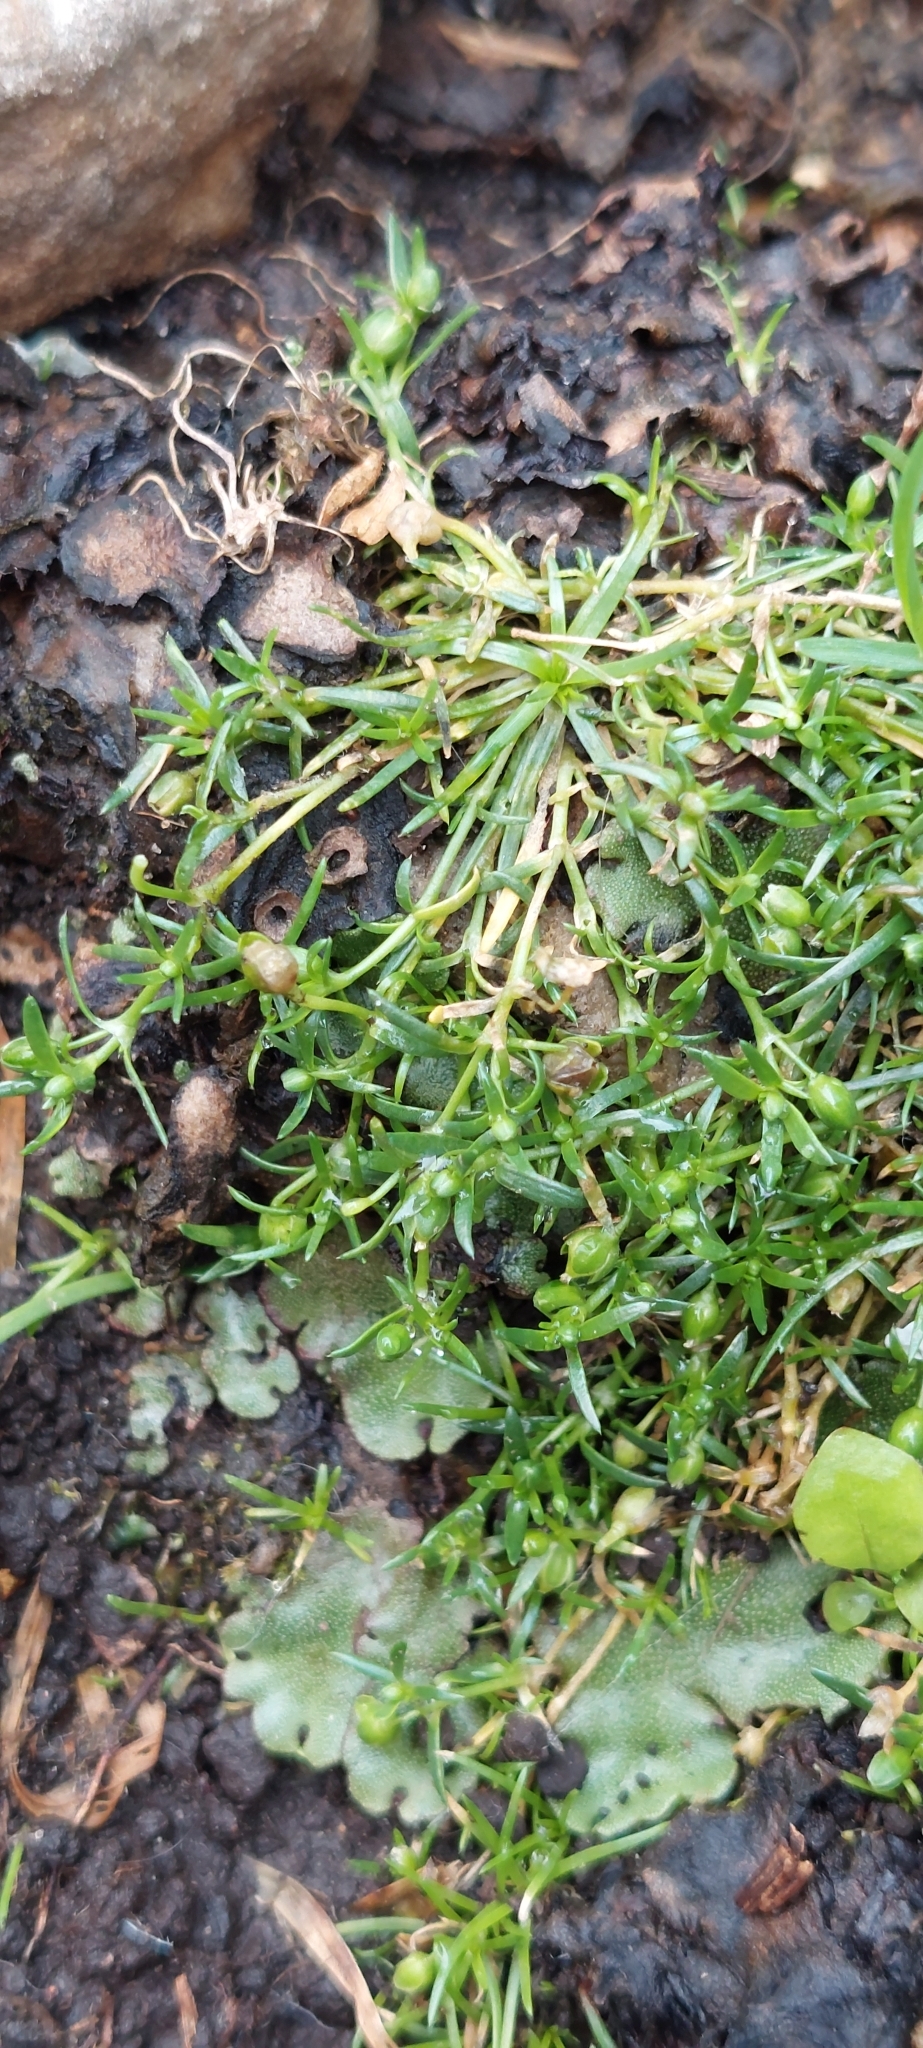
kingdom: Plantae
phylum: Tracheophyta
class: Magnoliopsida
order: Caryophyllales
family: Caryophyllaceae
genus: Sagina
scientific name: Sagina procumbens
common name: Procumbent pearlwort
